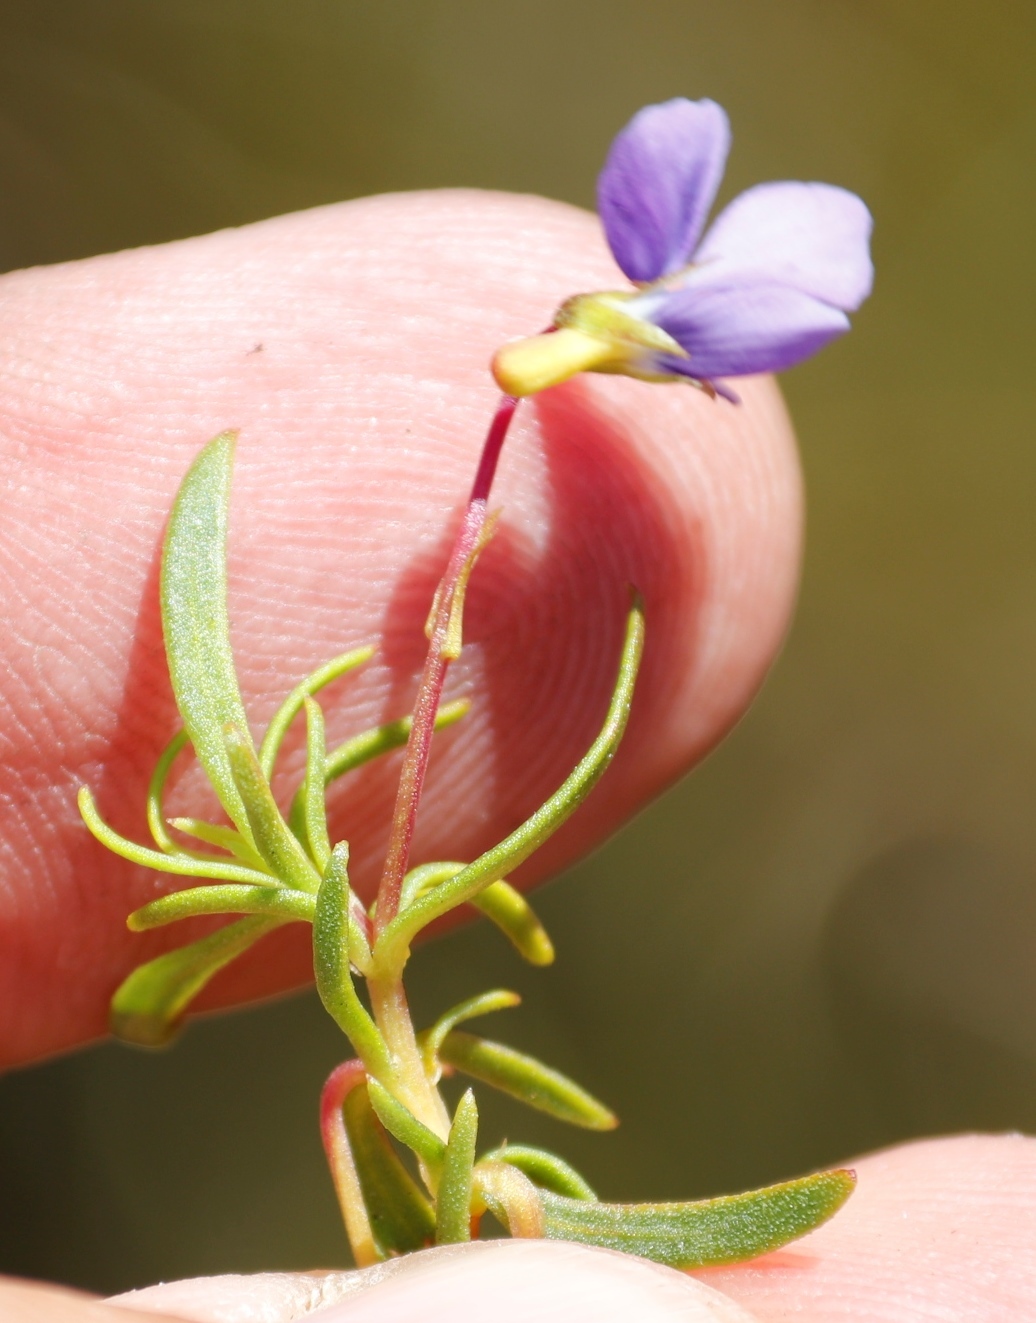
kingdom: Plantae
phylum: Tracheophyta
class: Magnoliopsida
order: Malpighiales
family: Violaceae
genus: Viola
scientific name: Viola decumbens
